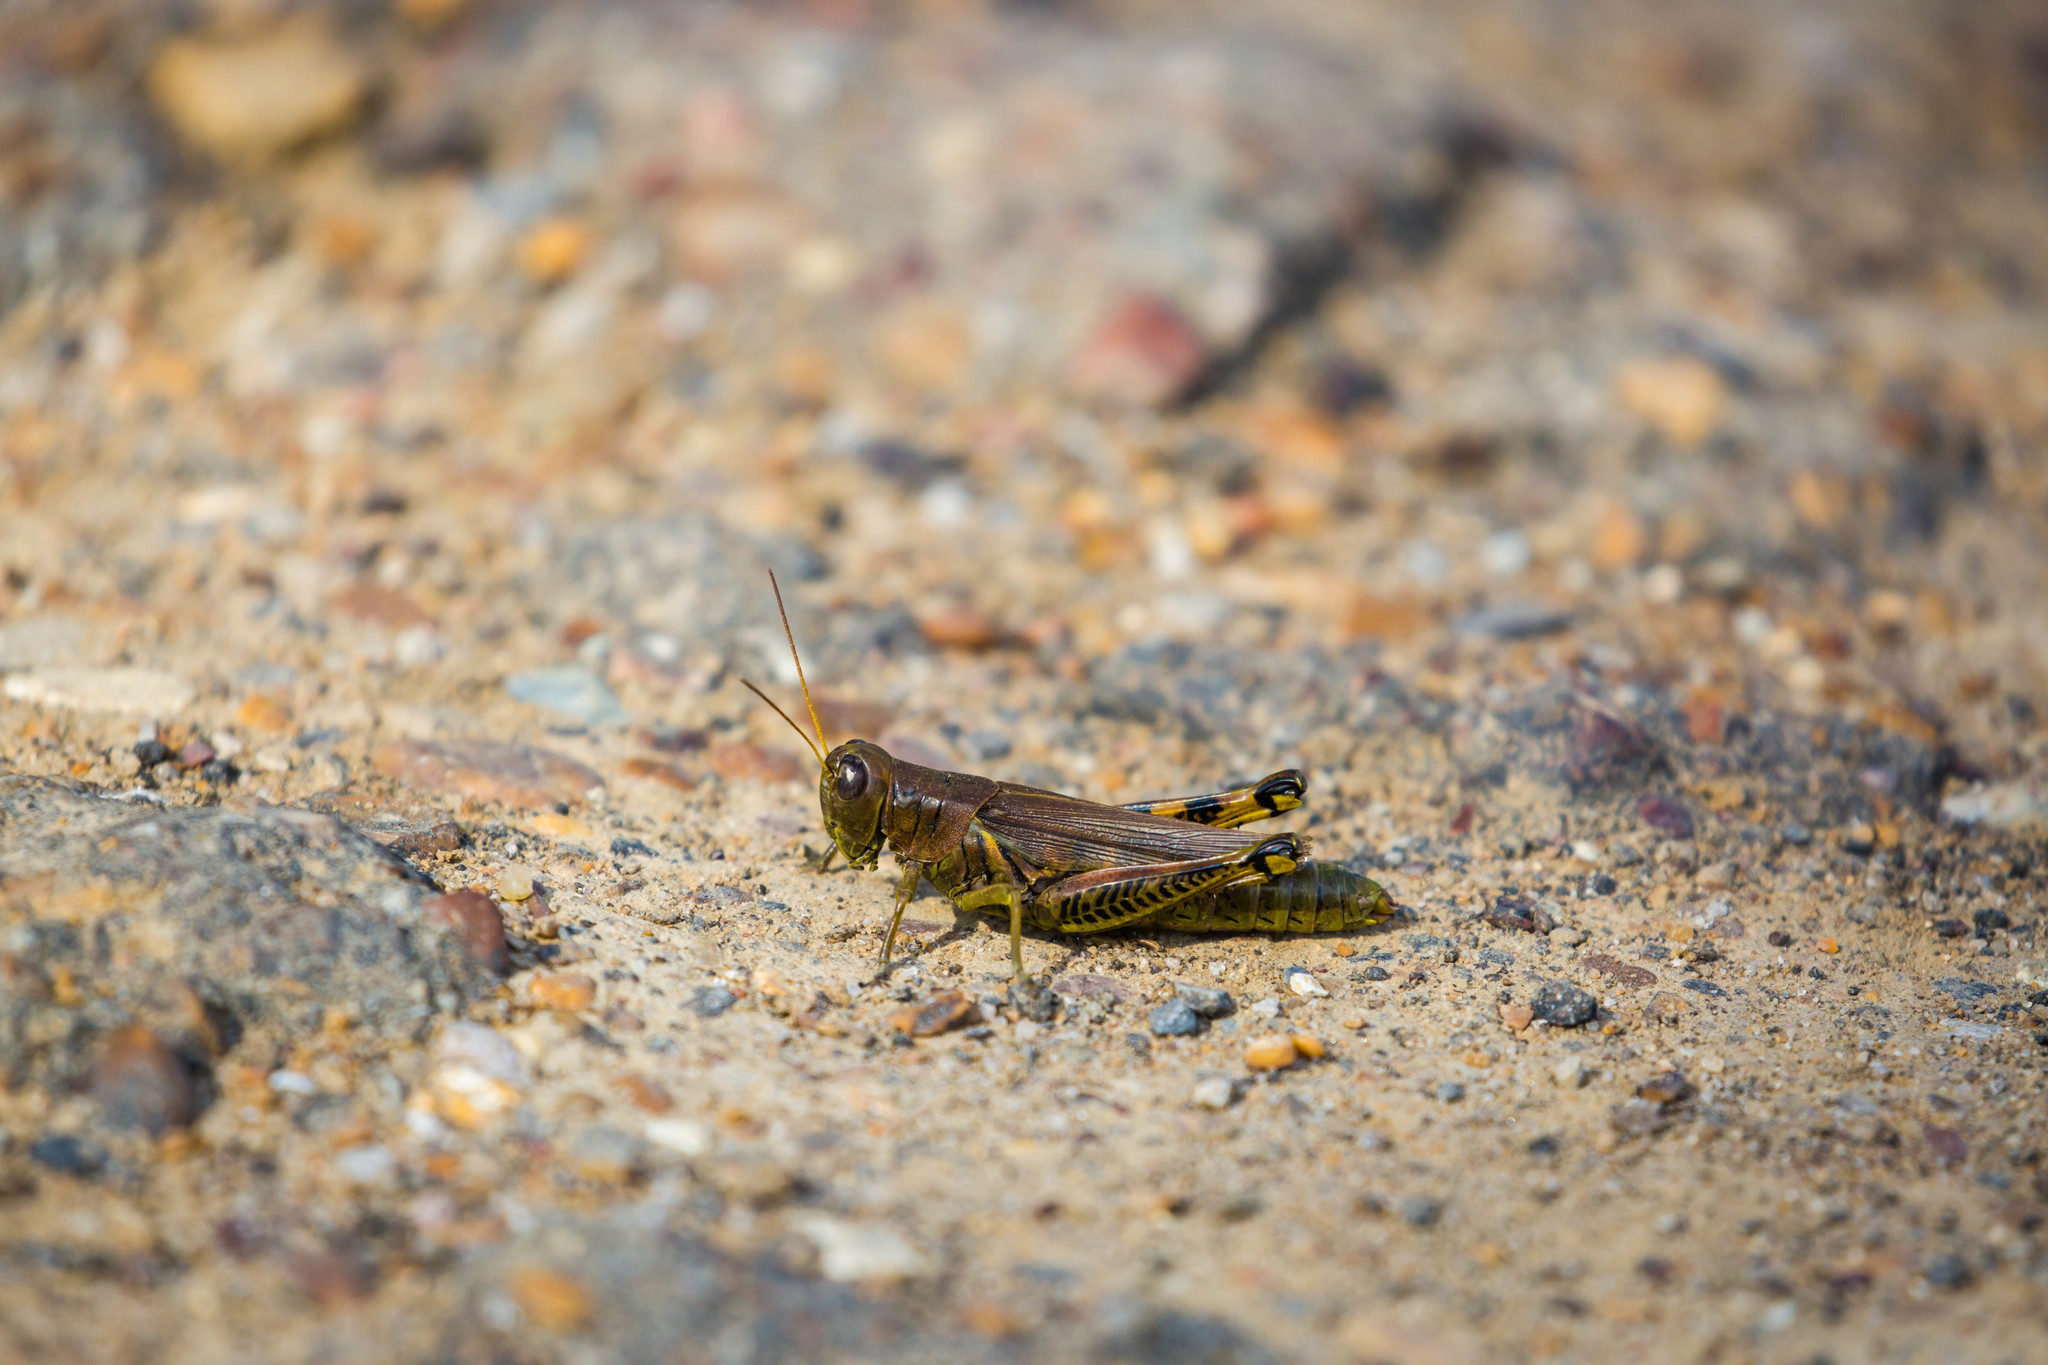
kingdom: Animalia
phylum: Arthropoda
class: Insecta
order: Orthoptera
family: Acrididae
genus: Melanoplus
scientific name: Melanoplus differentialis
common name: Differential grasshopper
